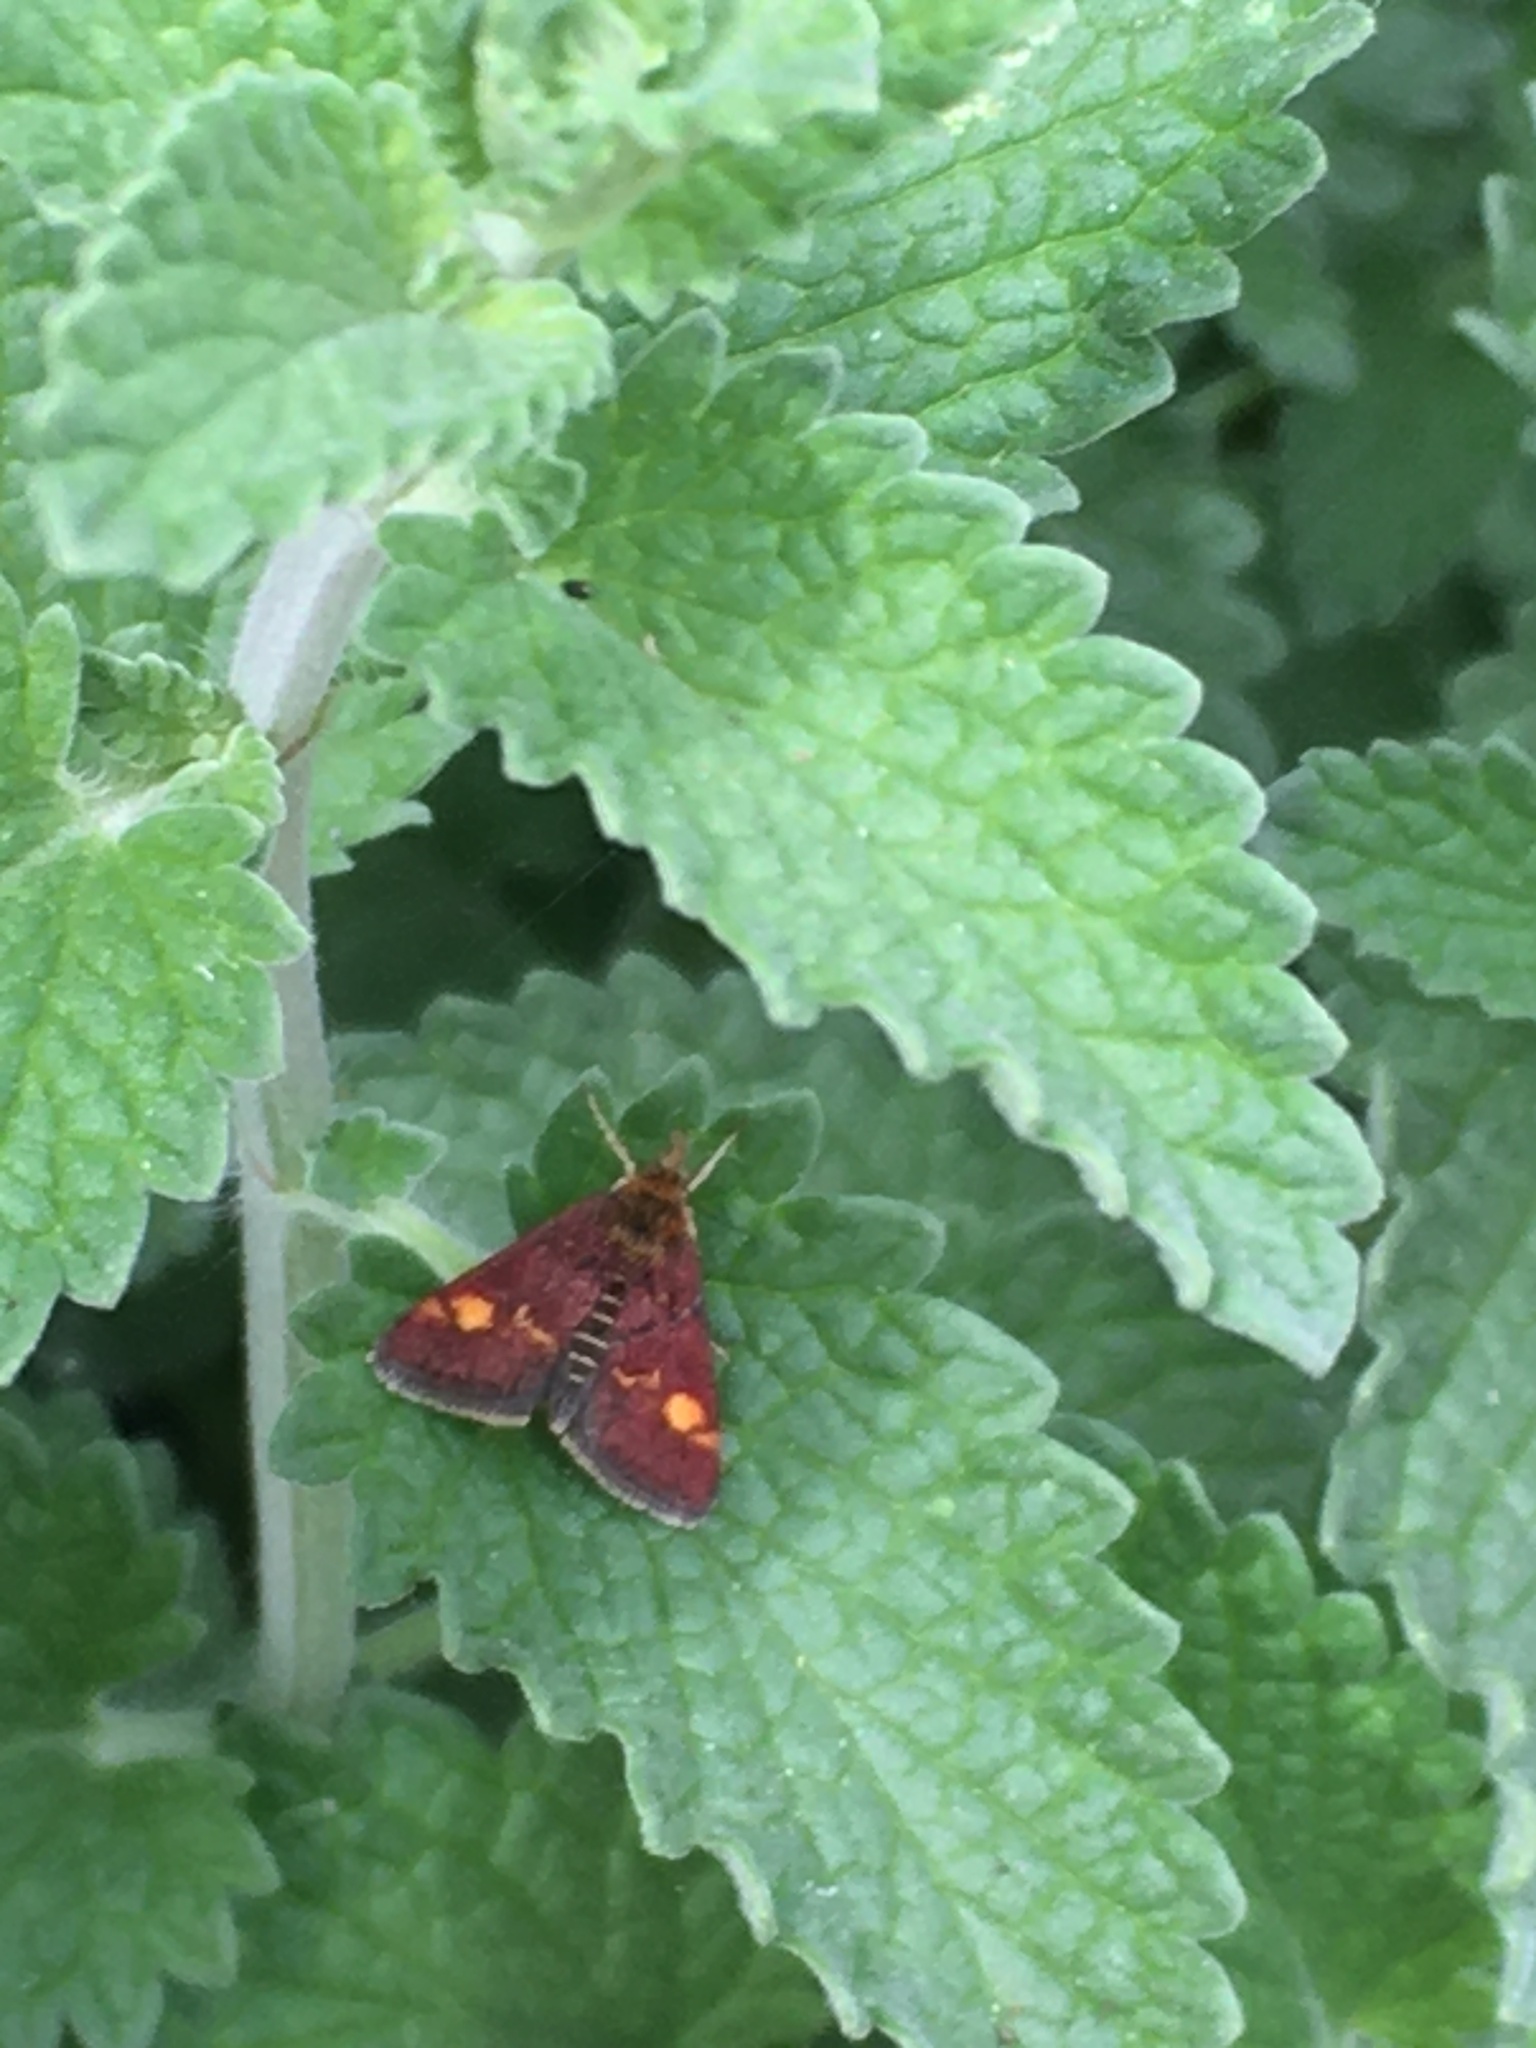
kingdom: Animalia
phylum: Arthropoda
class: Insecta
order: Lepidoptera
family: Crambidae
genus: Pyrausta
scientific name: Pyrausta aurata
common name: Small purple & gold
